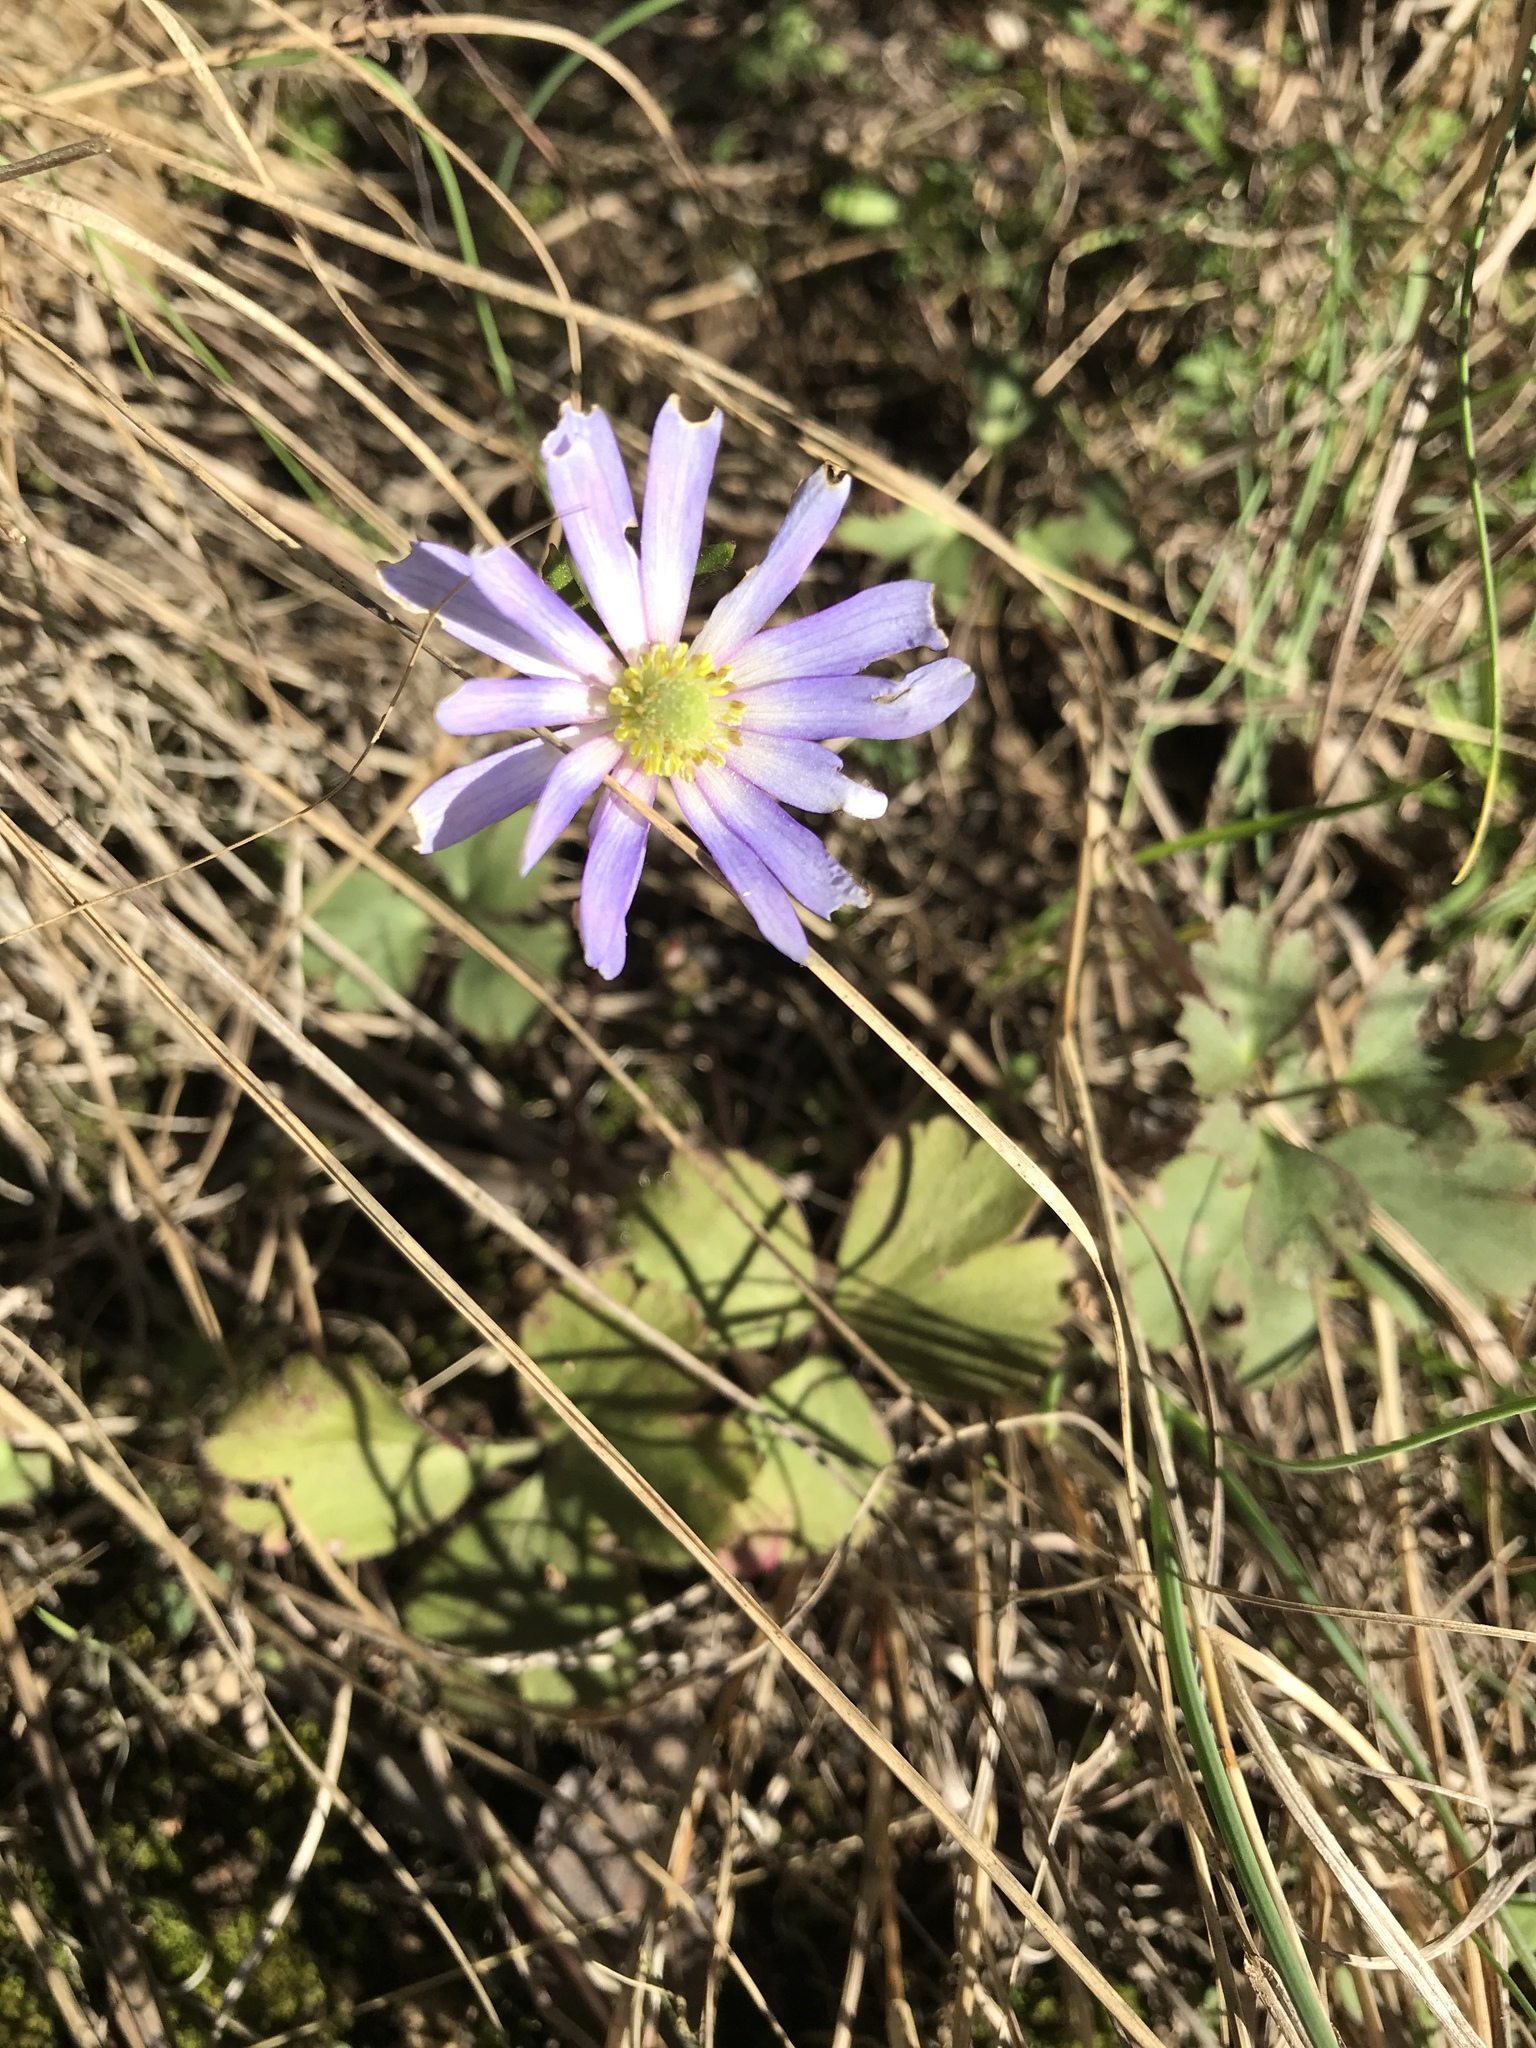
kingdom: Plantae
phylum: Tracheophyta
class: Magnoliopsida
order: Ranunculales
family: Ranunculaceae
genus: Anemone
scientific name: Anemone berlandieri
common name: Ten-petal anemone
